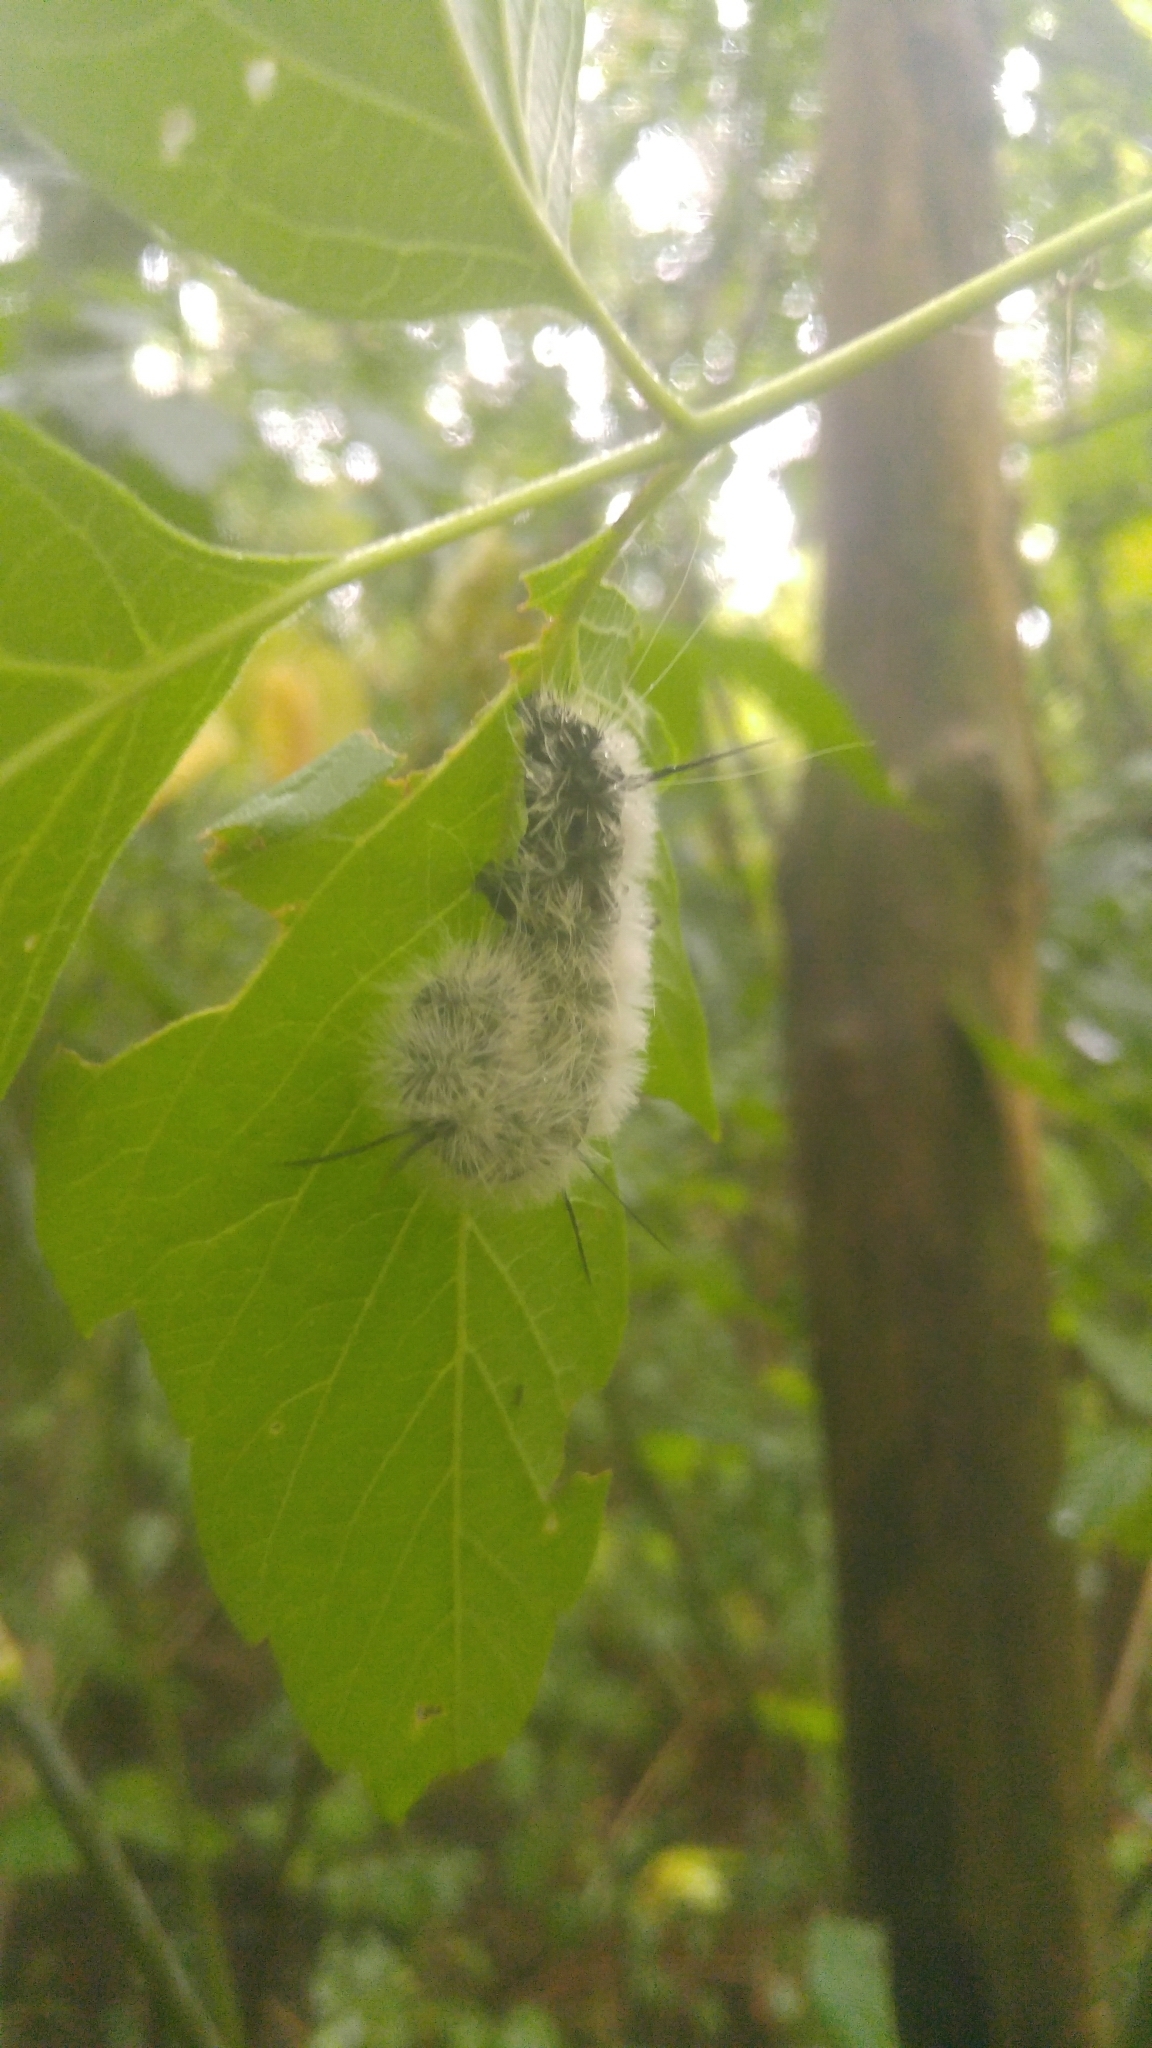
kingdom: Animalia
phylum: Arthropoda
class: Insecta
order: Lepidoptera
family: Noctuidae
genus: Acronicta
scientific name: Acronicta americana
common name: American dagger
